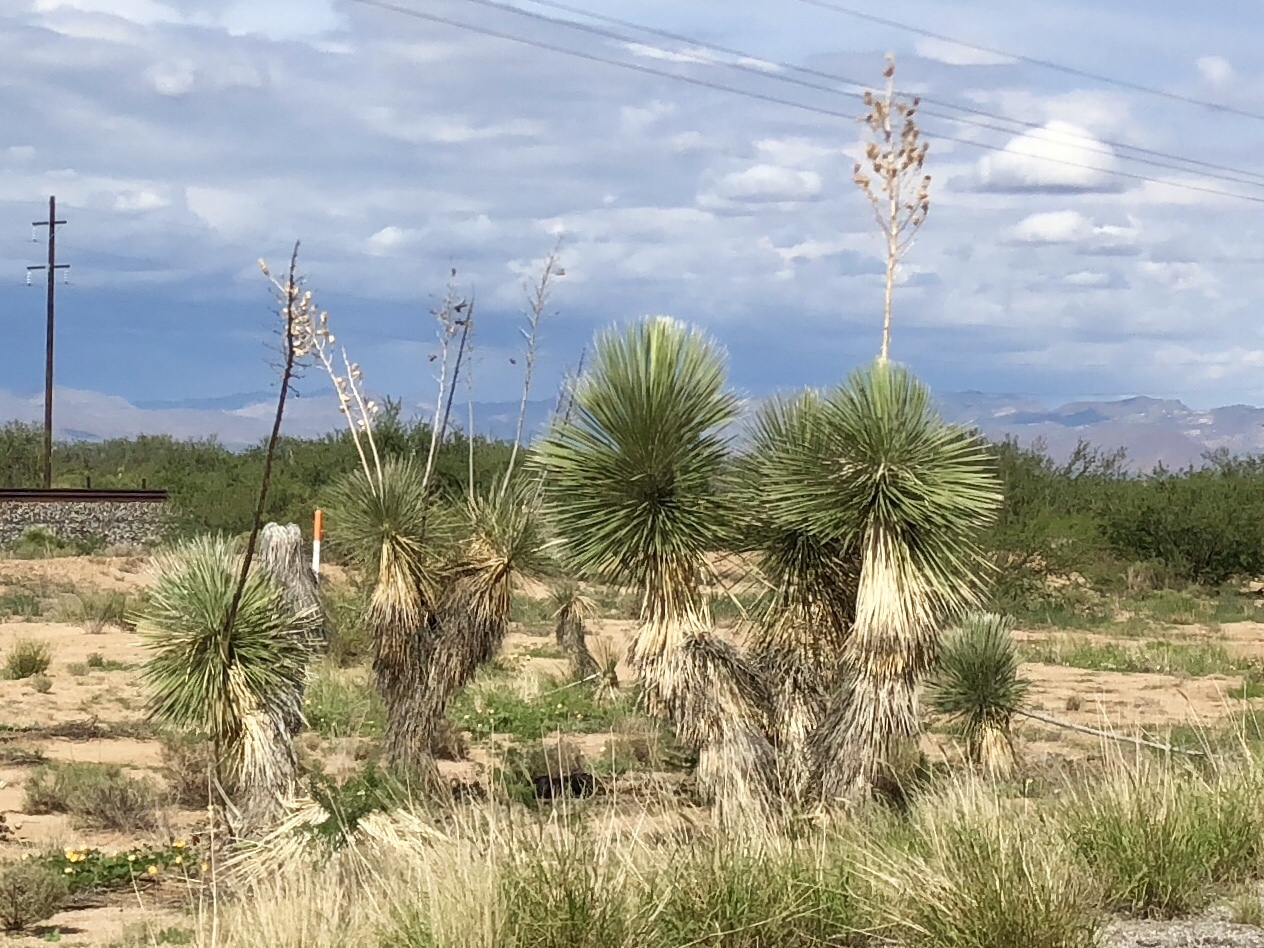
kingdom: Plantae
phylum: Tracheophyta
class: Liliopsida
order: Asparagales
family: Asparagaceae
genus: Yucca
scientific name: Yucca elata
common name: Palmella
